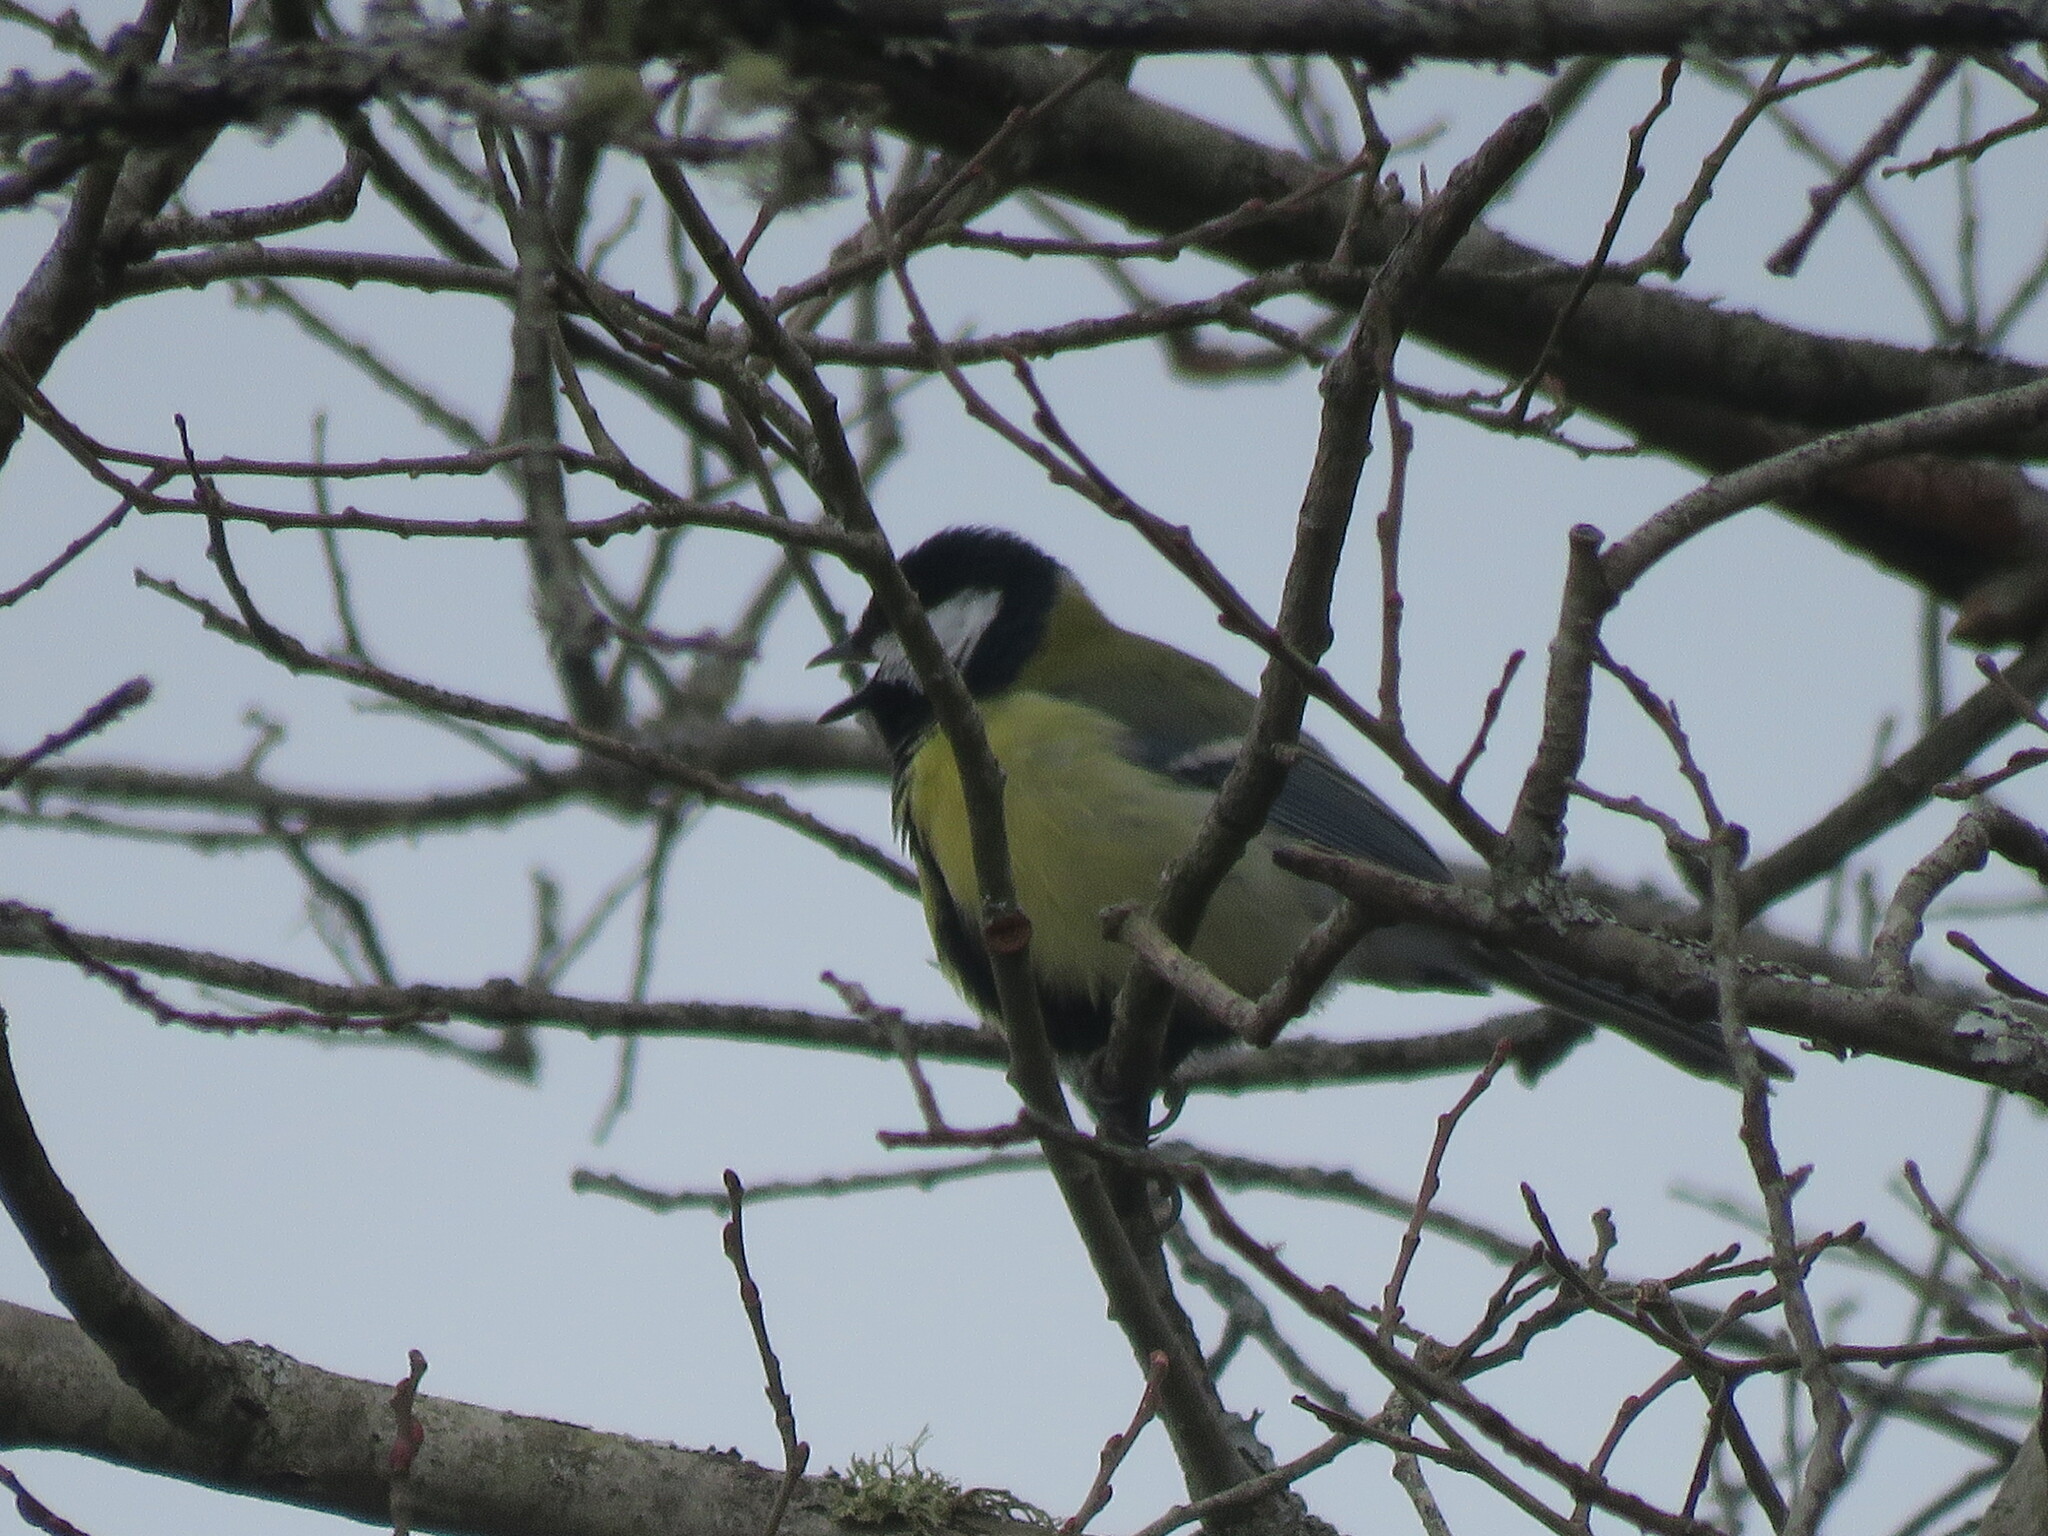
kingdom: Animalia
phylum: Chordata
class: Aves
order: Passeriformes
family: Paridae
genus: Parus
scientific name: Parus major
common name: Great tit
